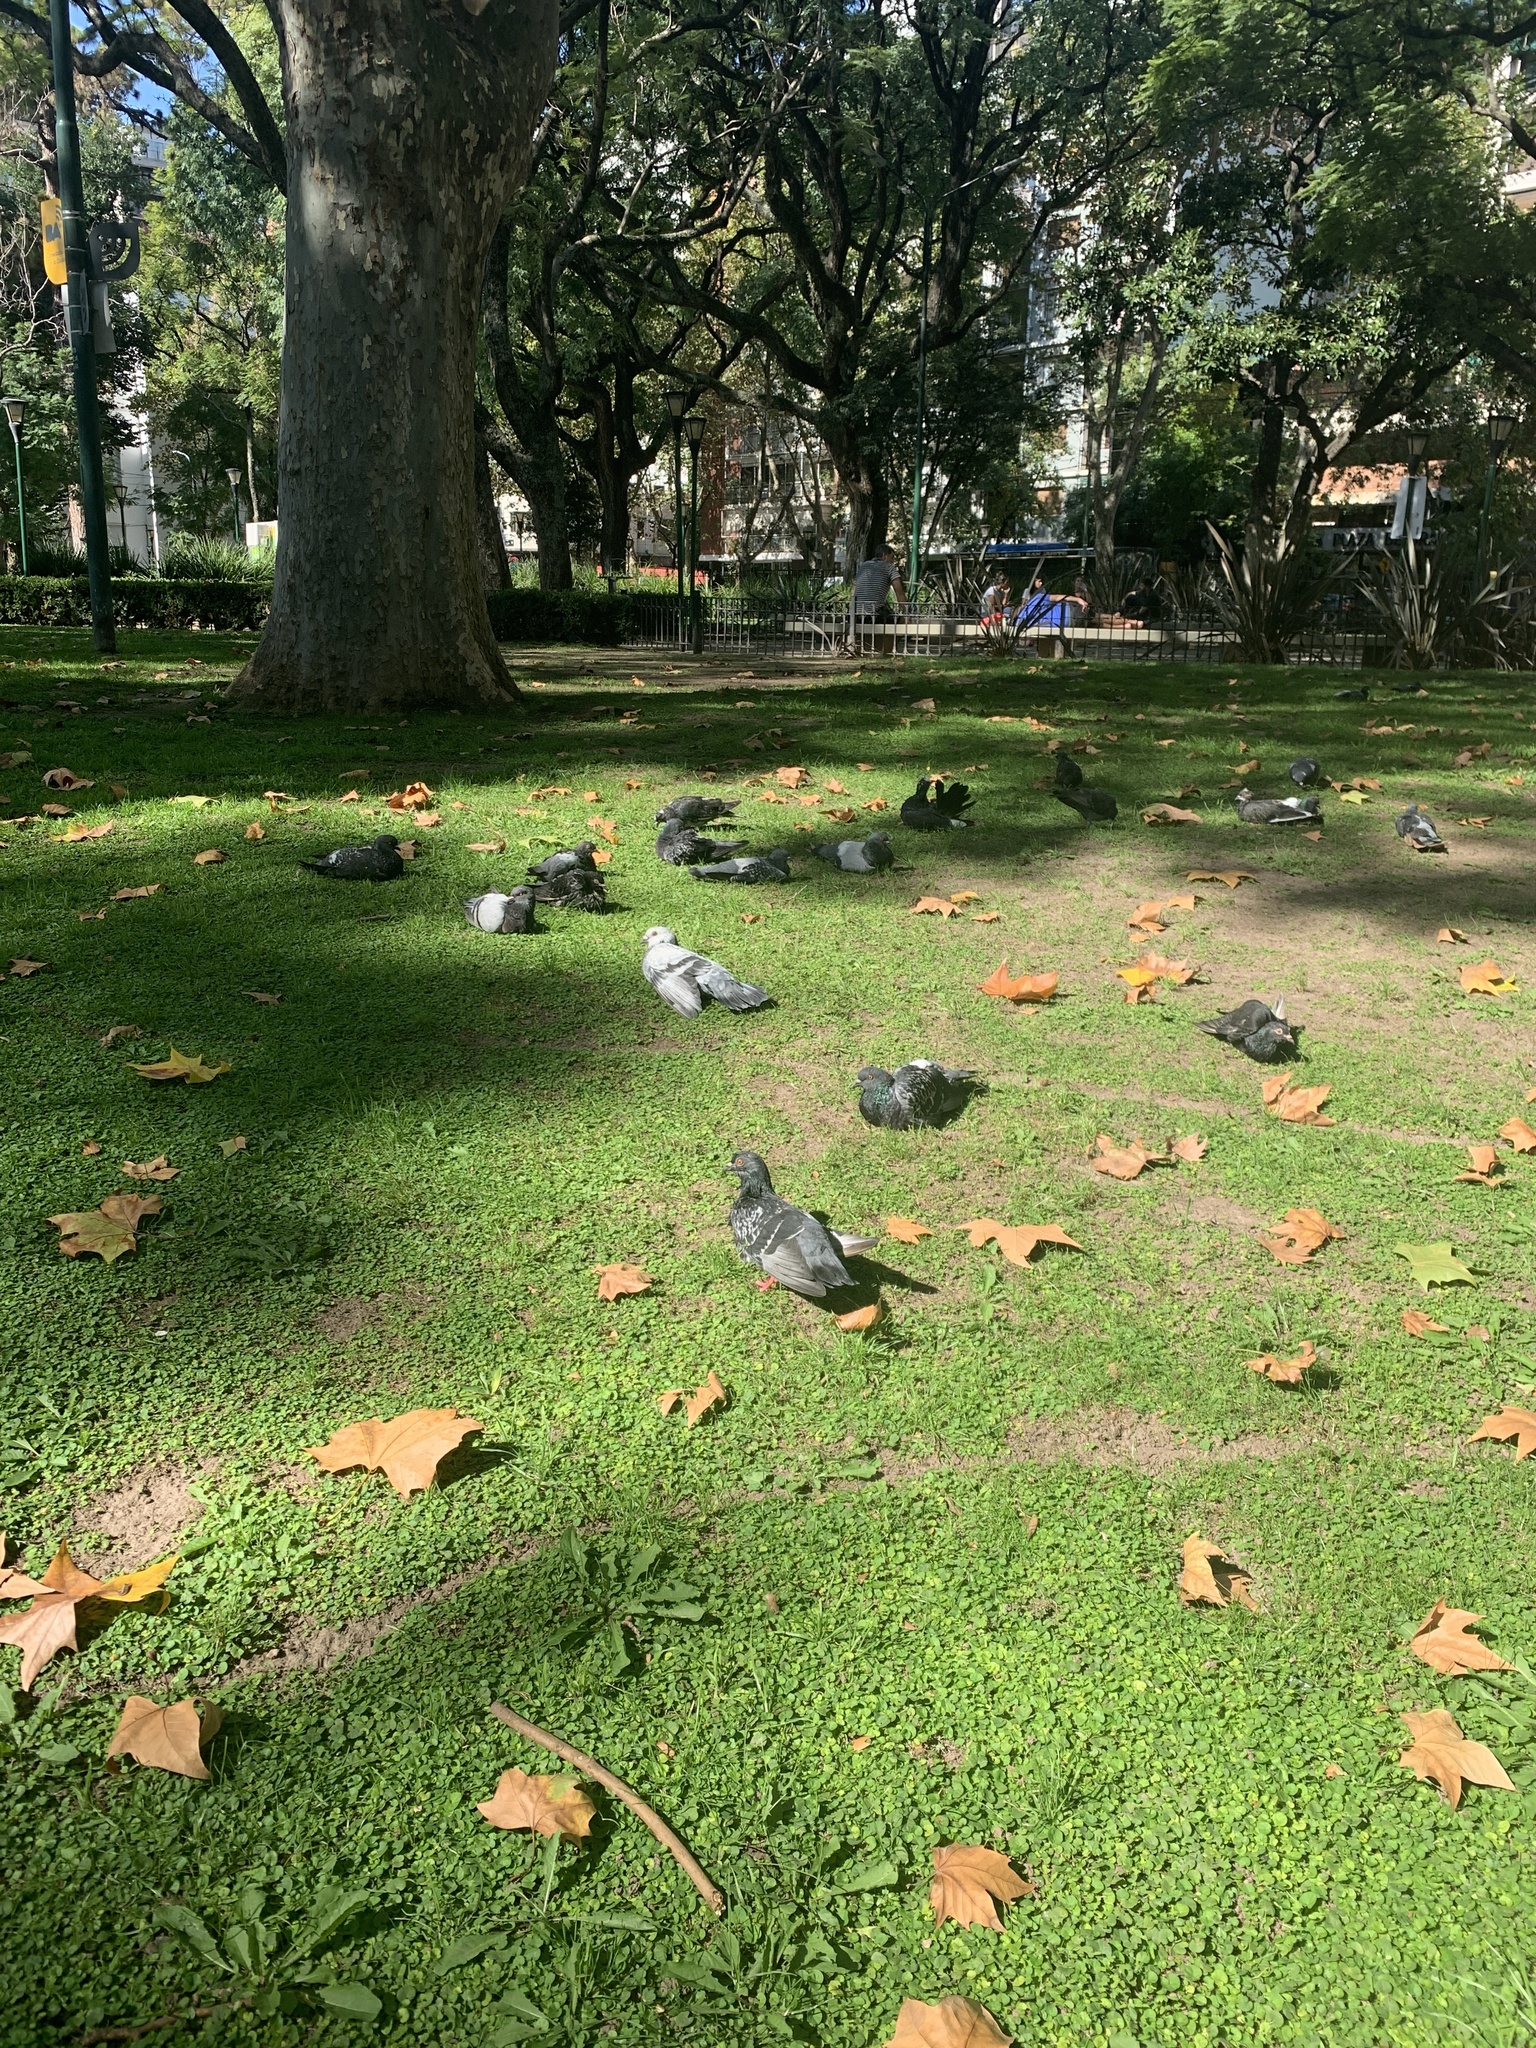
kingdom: Animalia
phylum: Chordata
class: Aves
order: Columbiformes
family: Columbidae
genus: Columba
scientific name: Columba livia
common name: Rock pigeon
